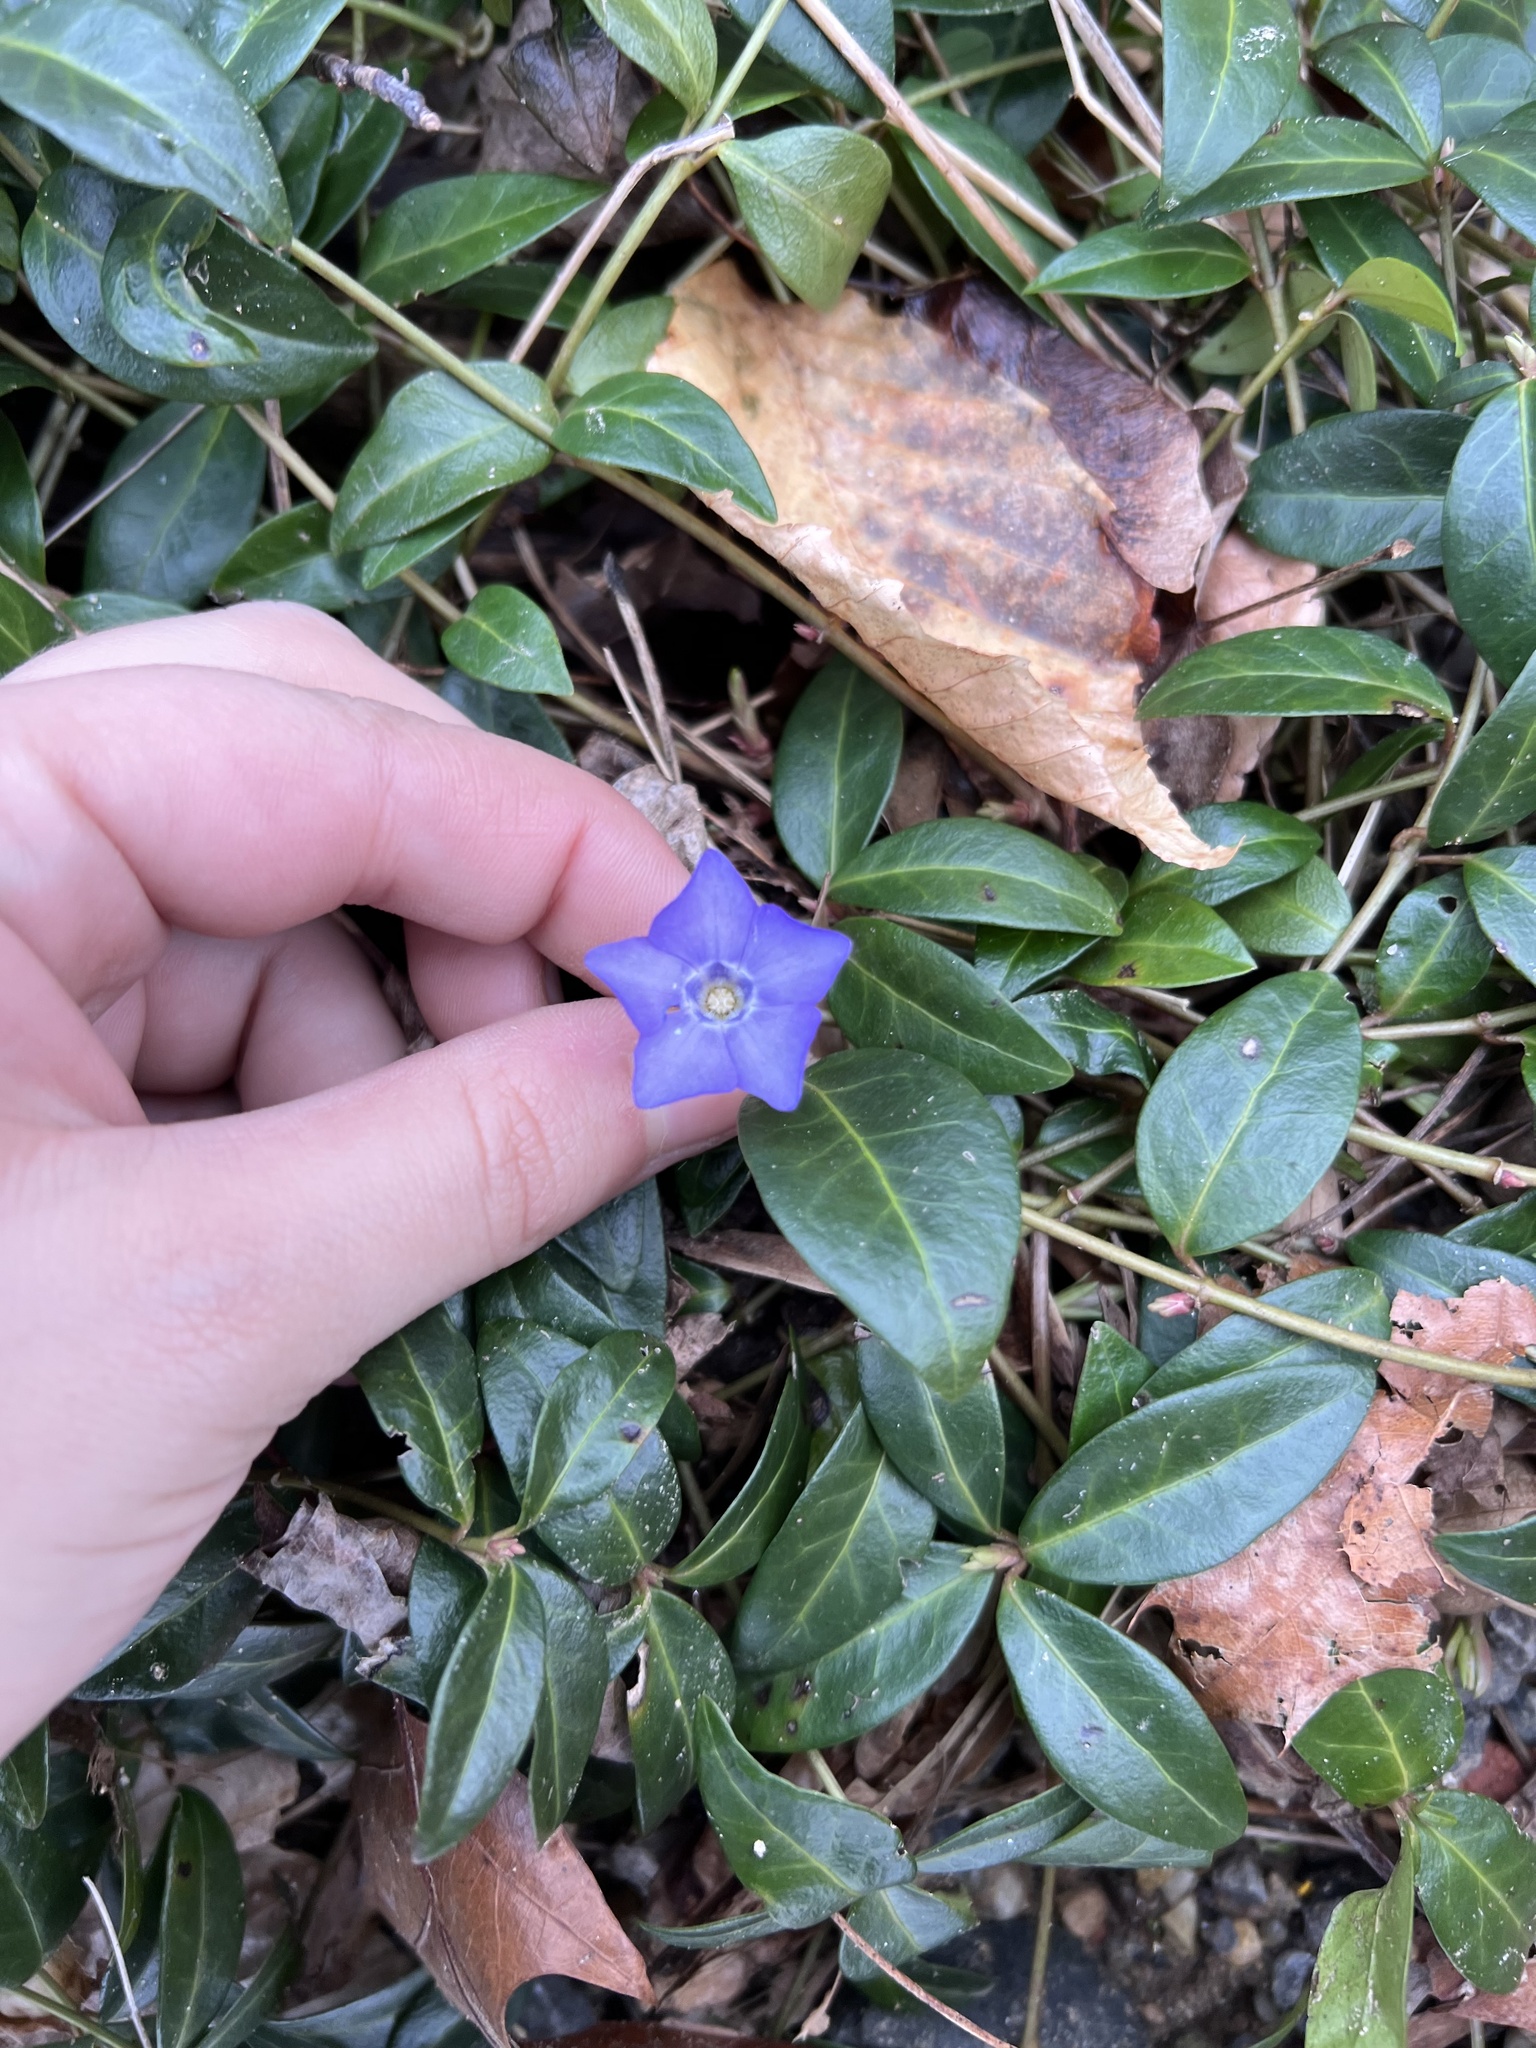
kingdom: Plantae
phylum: Tracheophyta
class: Magnoliopsida
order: Gentianales
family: Apocynaceae
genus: Vinca
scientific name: Vinca minor
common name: Lesser periwinkle
